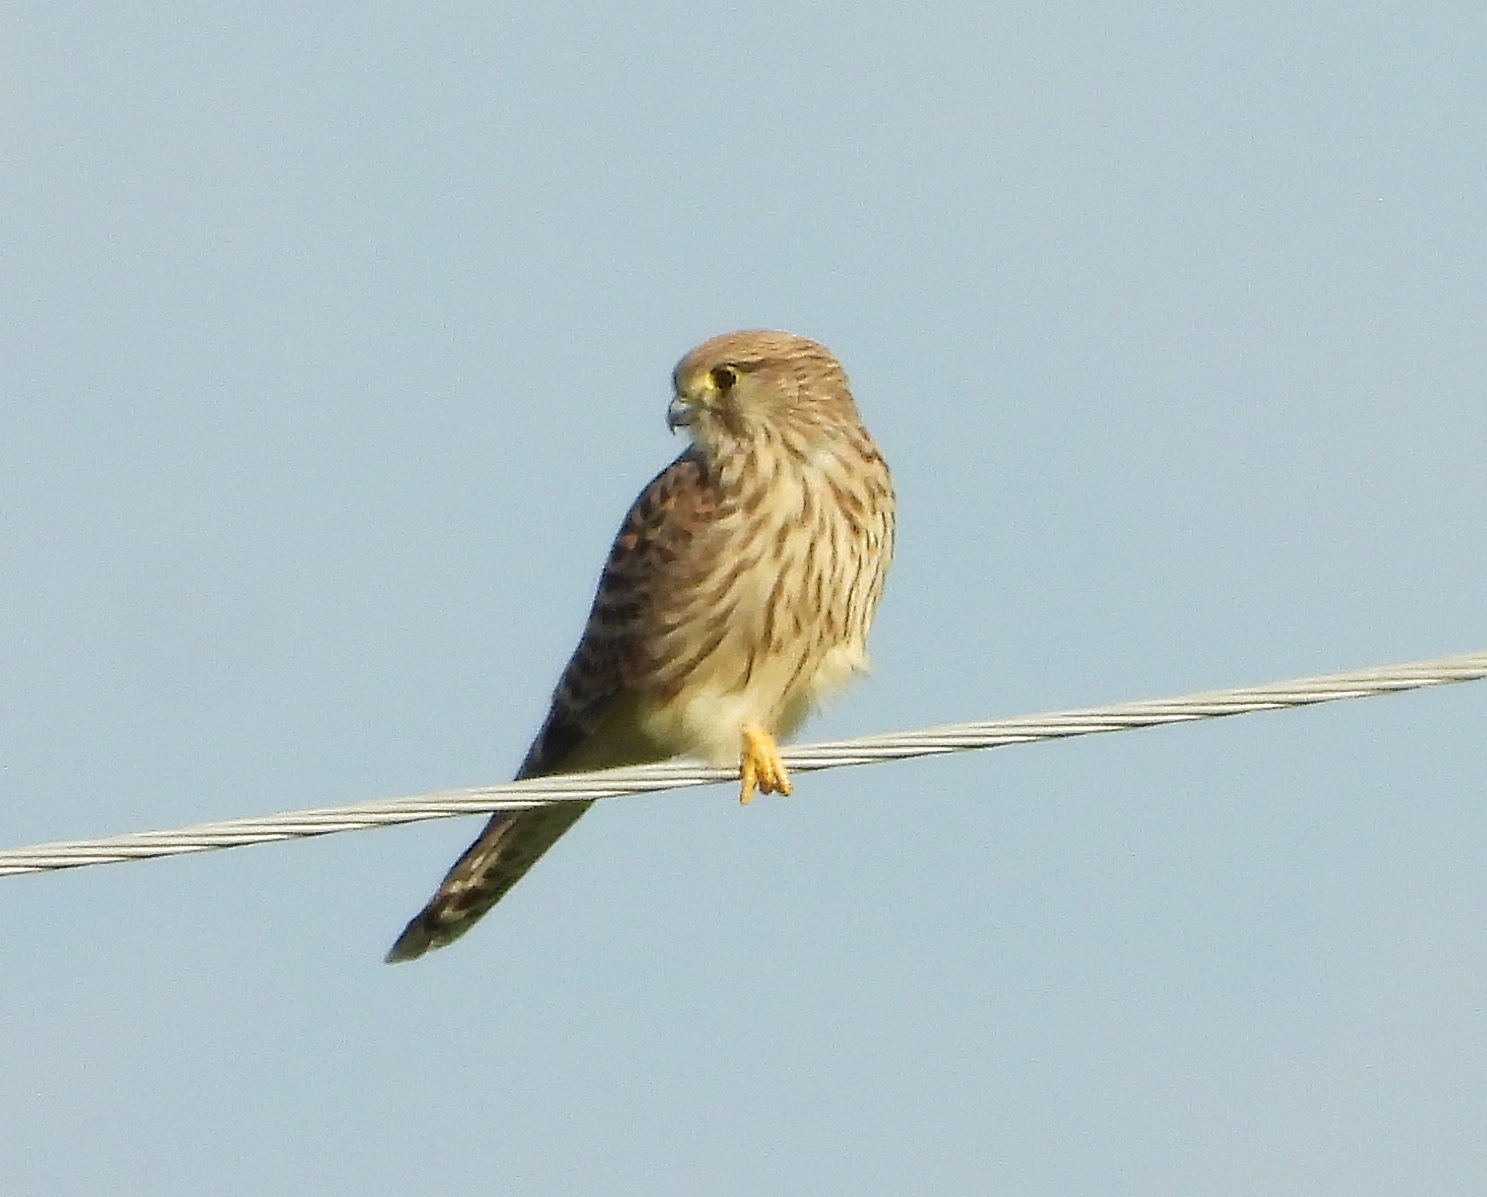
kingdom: Animalia
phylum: Chordata
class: Aves
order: Falconiformes
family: Falconidae
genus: Falco
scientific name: Falco tinnunculus
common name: Common kestrel
